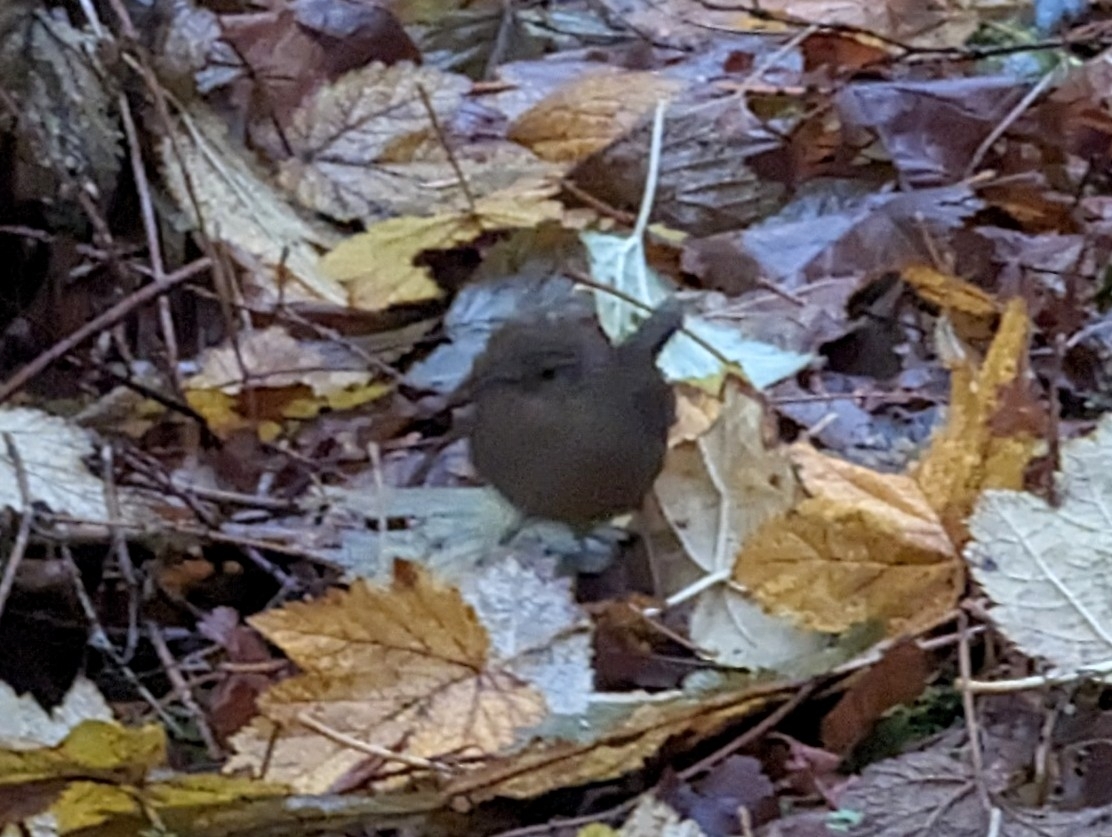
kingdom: Animalia
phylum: Chordata
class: Aves
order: Passeriformes
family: Troglodytidae
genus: Troglodytes
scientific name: Troglodytes pacificus
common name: Pacific wren
